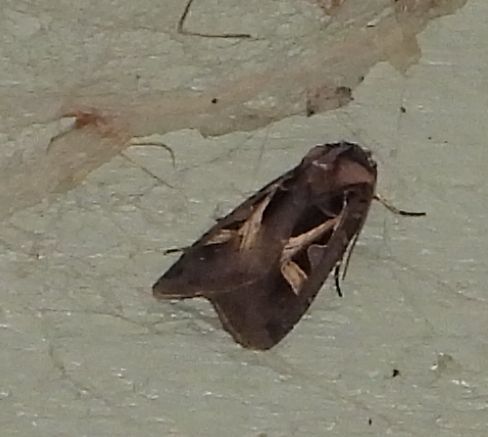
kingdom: Animalia
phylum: Arthropoda
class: Insecta
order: Lepidoptera
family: Noctuidae
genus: Feltia
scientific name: Feltia herilis
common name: Master's dart
